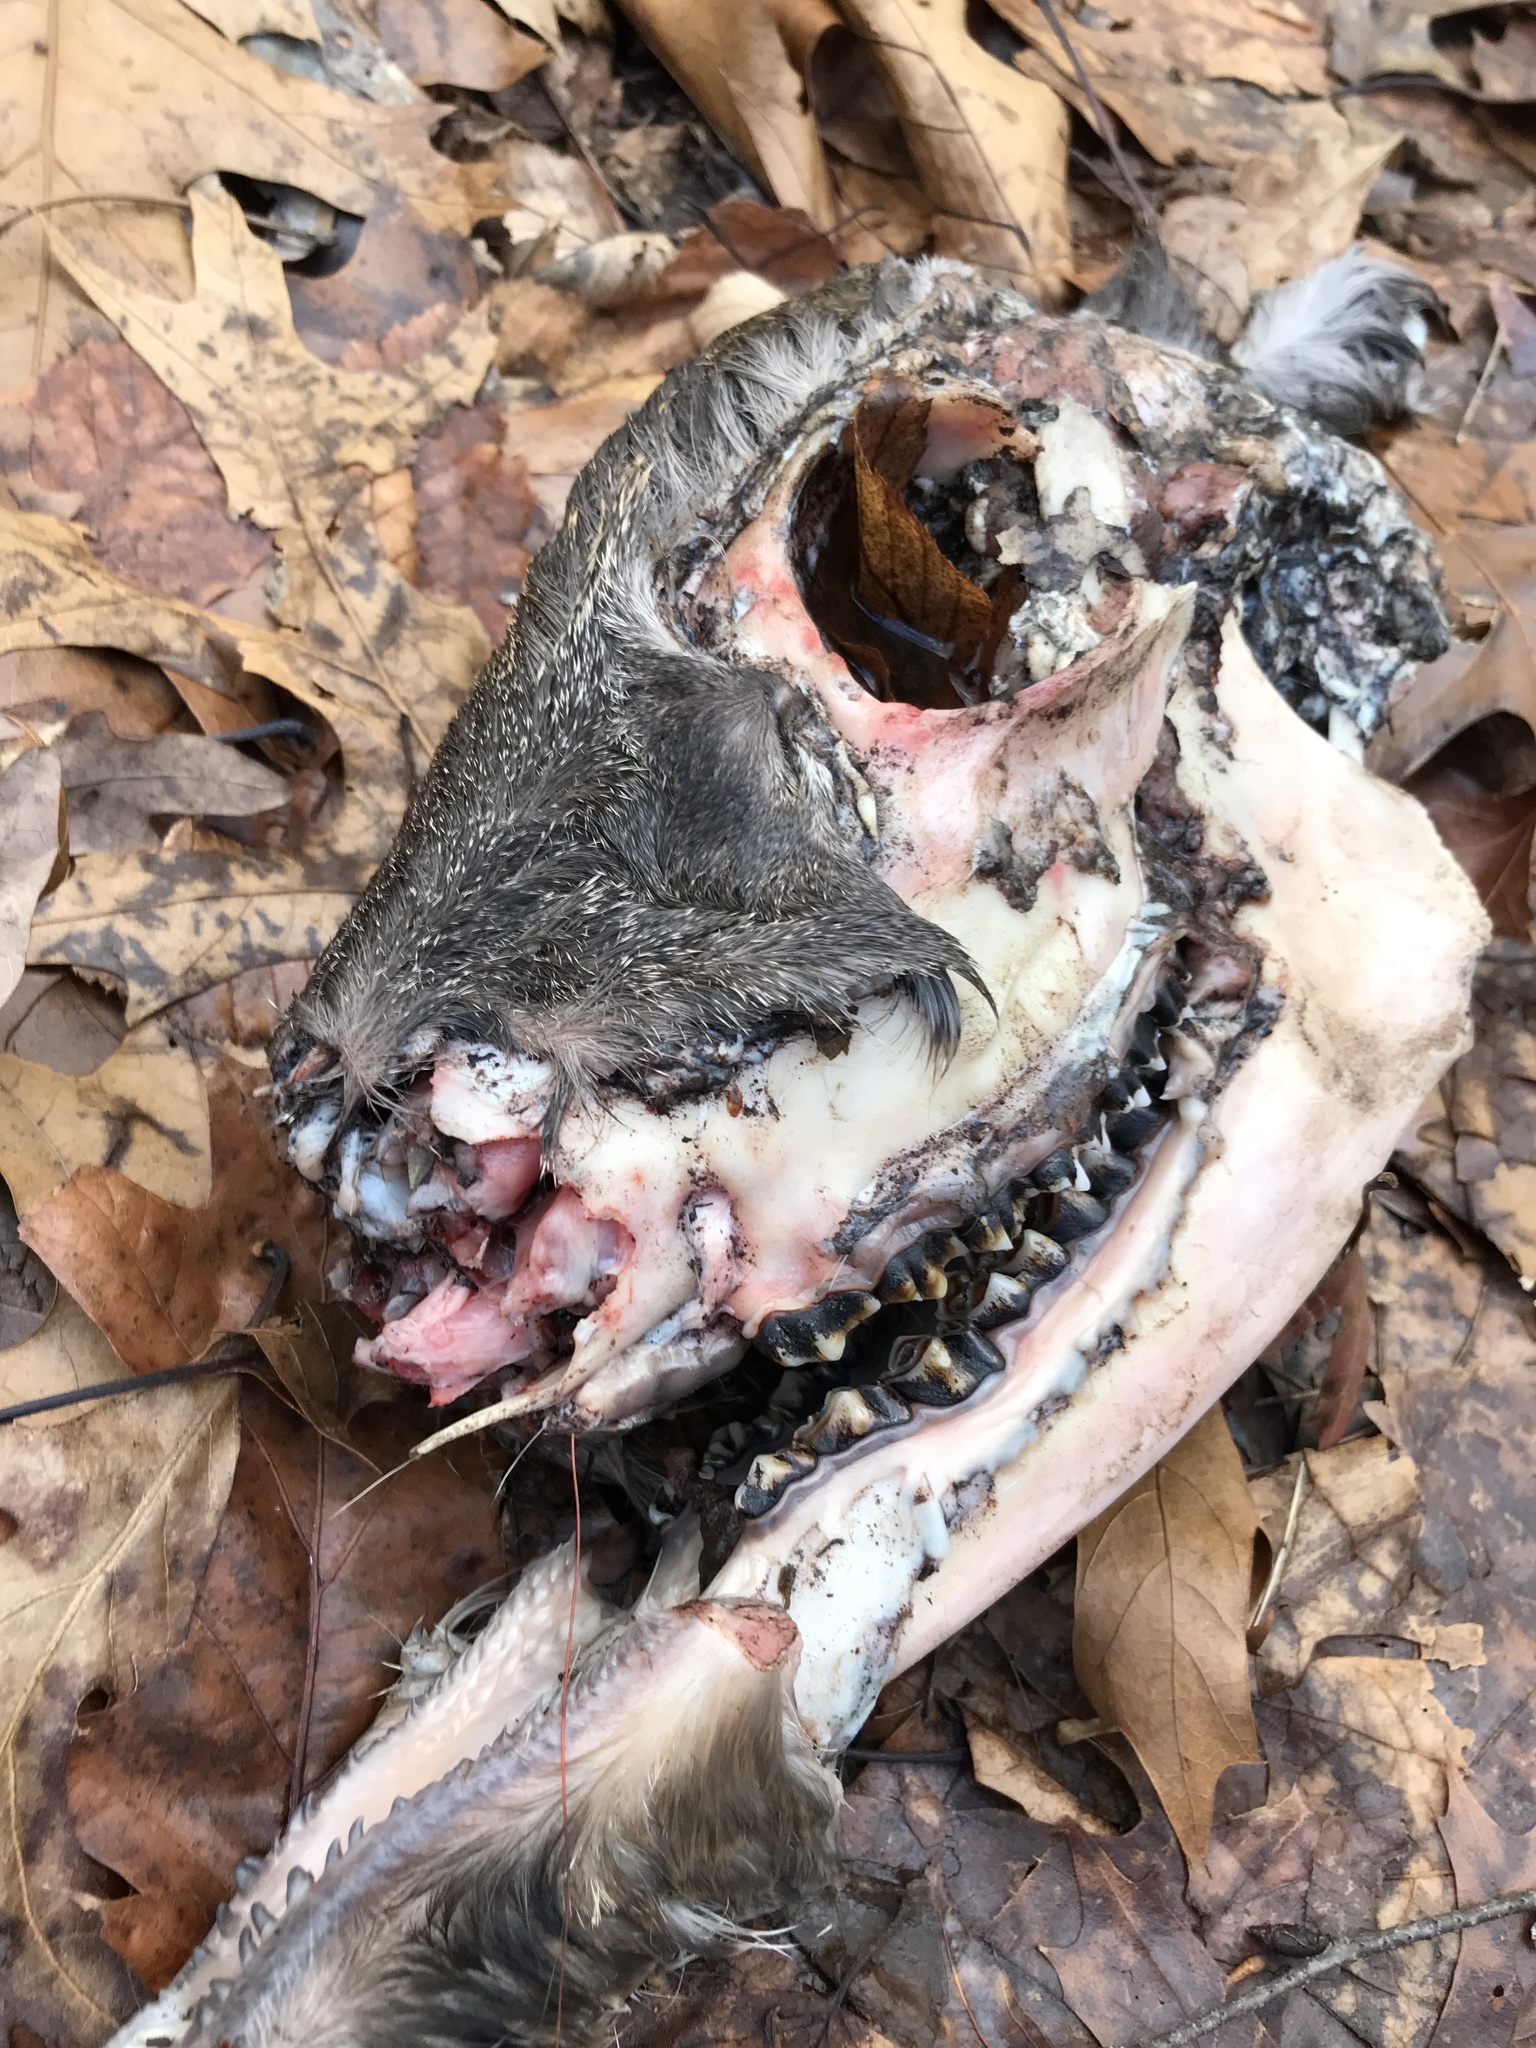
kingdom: Animalia
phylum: Chordata
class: Mammalia
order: Artiodactyla
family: Cervidae
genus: Odocoileus
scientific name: Odocoileus virginianus
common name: White-tailed deer
